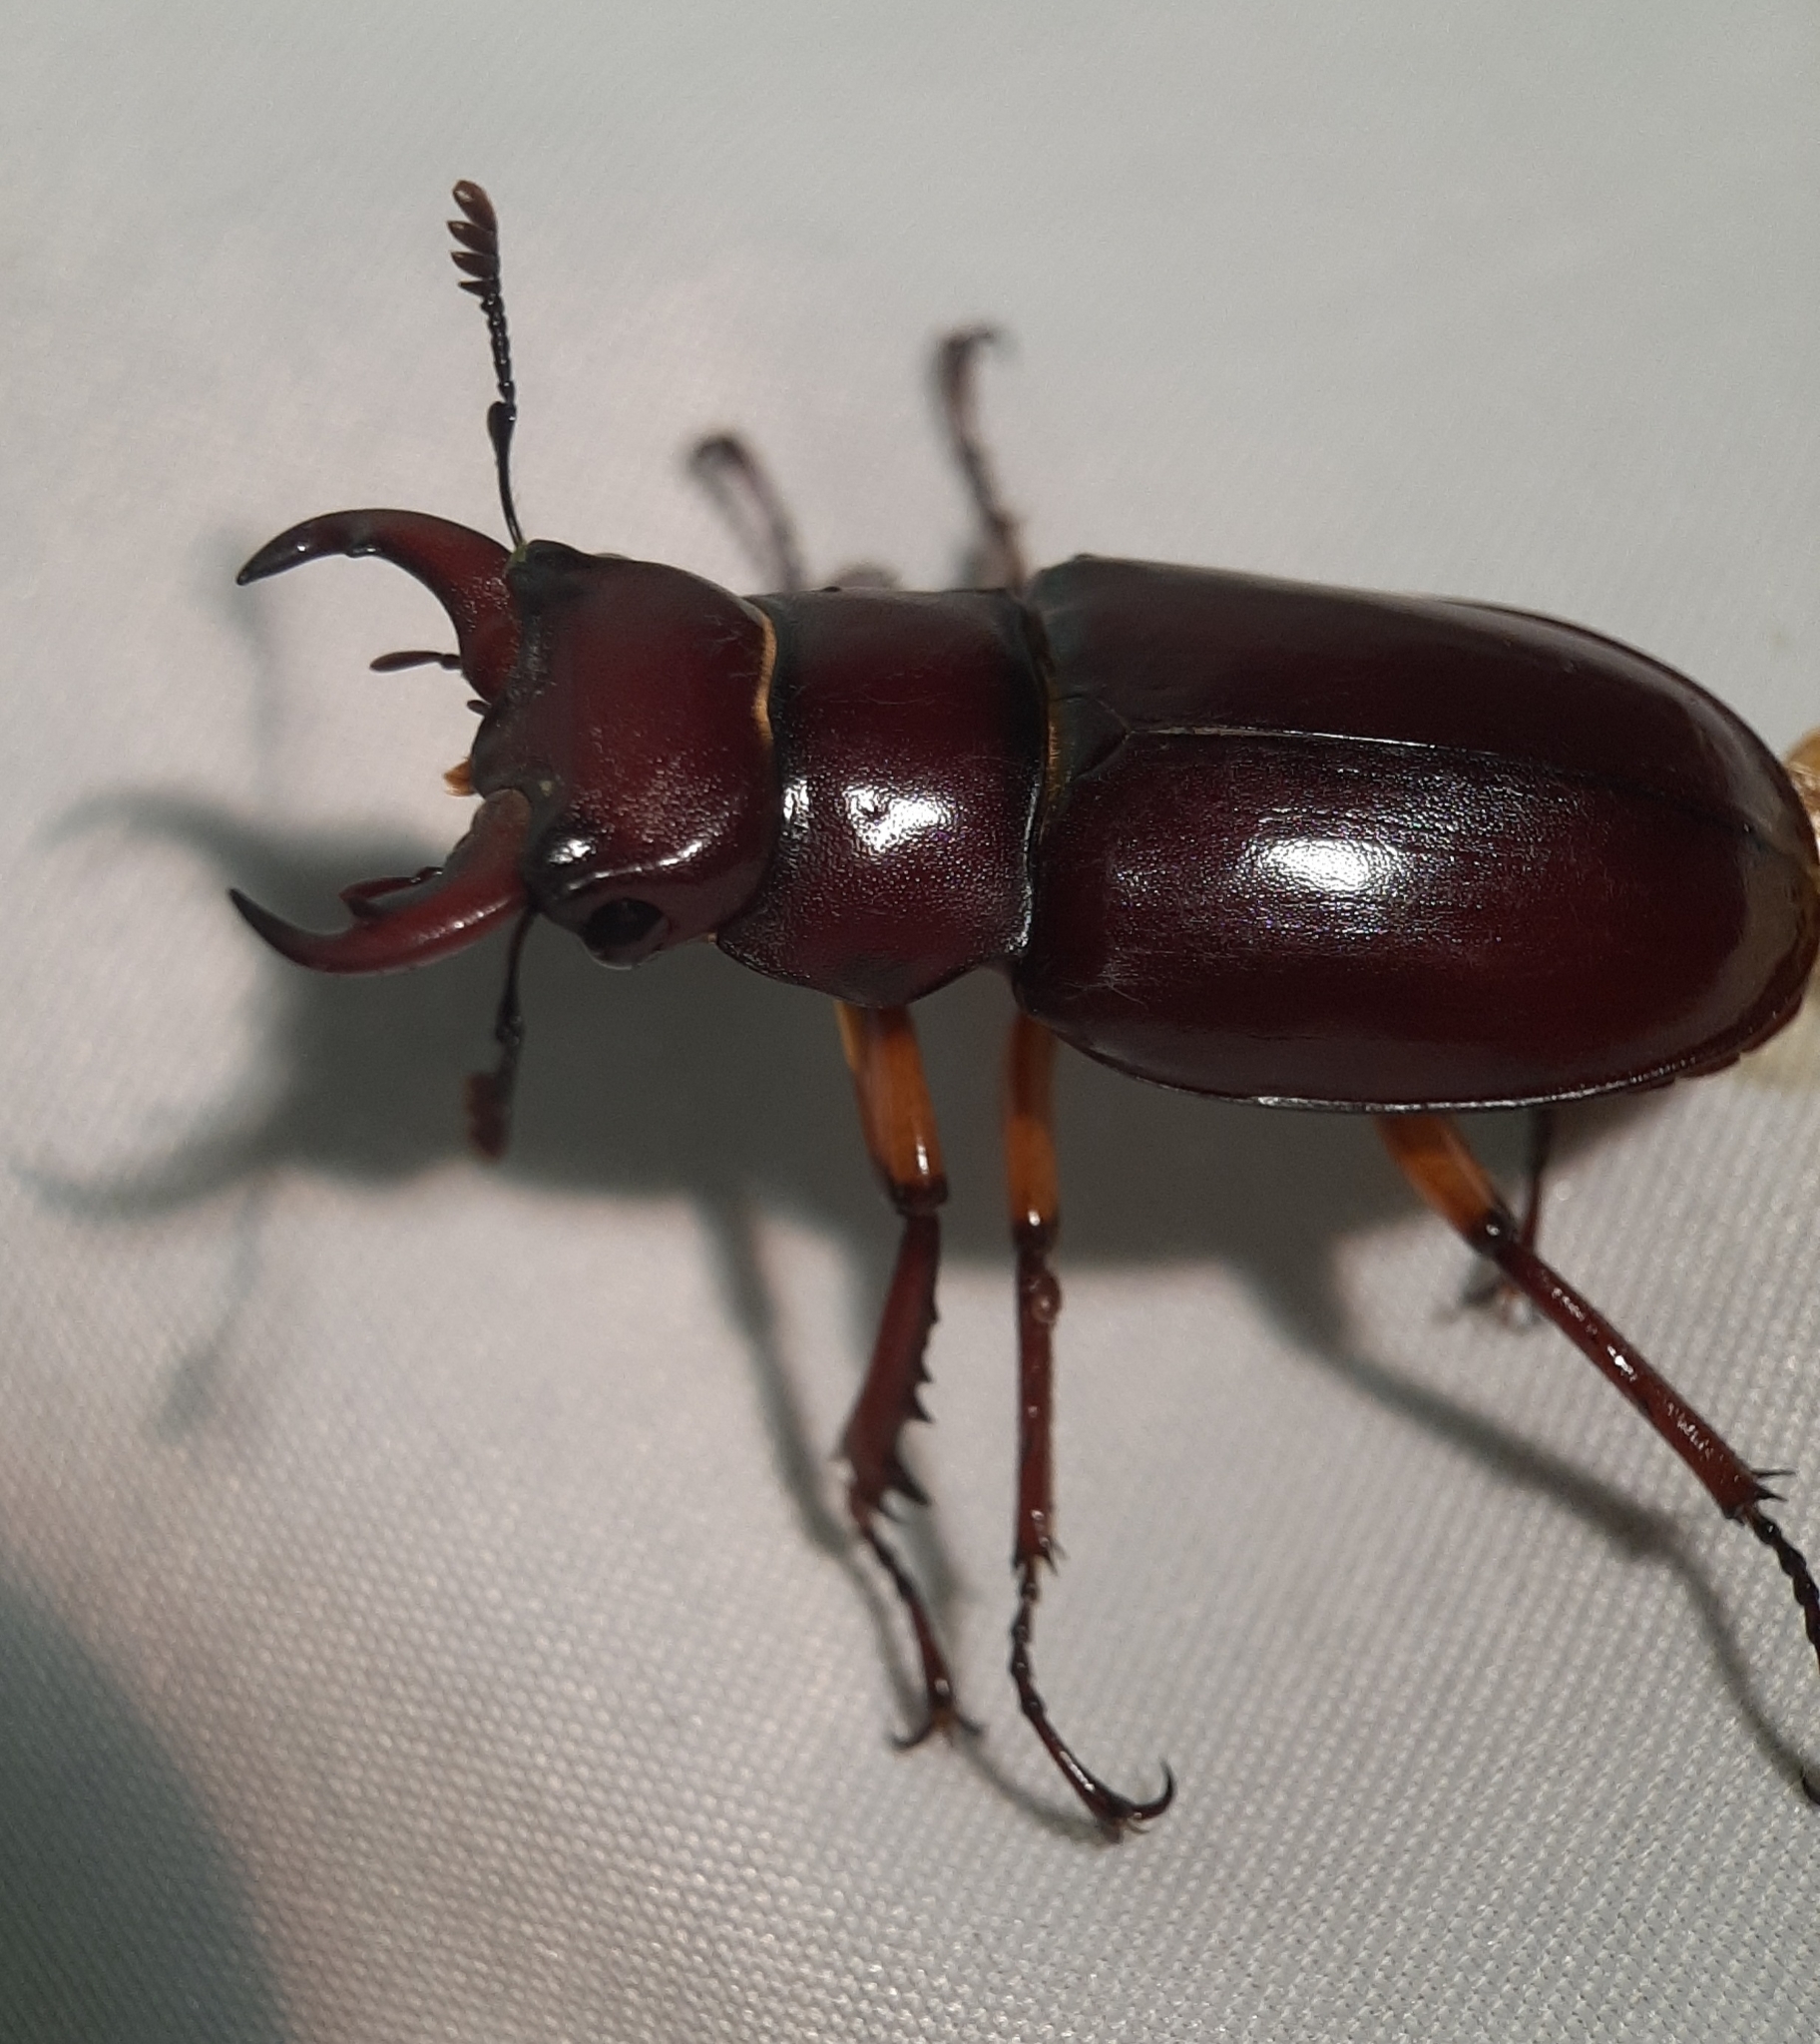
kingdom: Animalia
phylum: Arthropoda
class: Insecta
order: Coleoptera
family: Lucanidae
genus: Lucanus
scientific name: Lucanus capreolus
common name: Stag beetle
